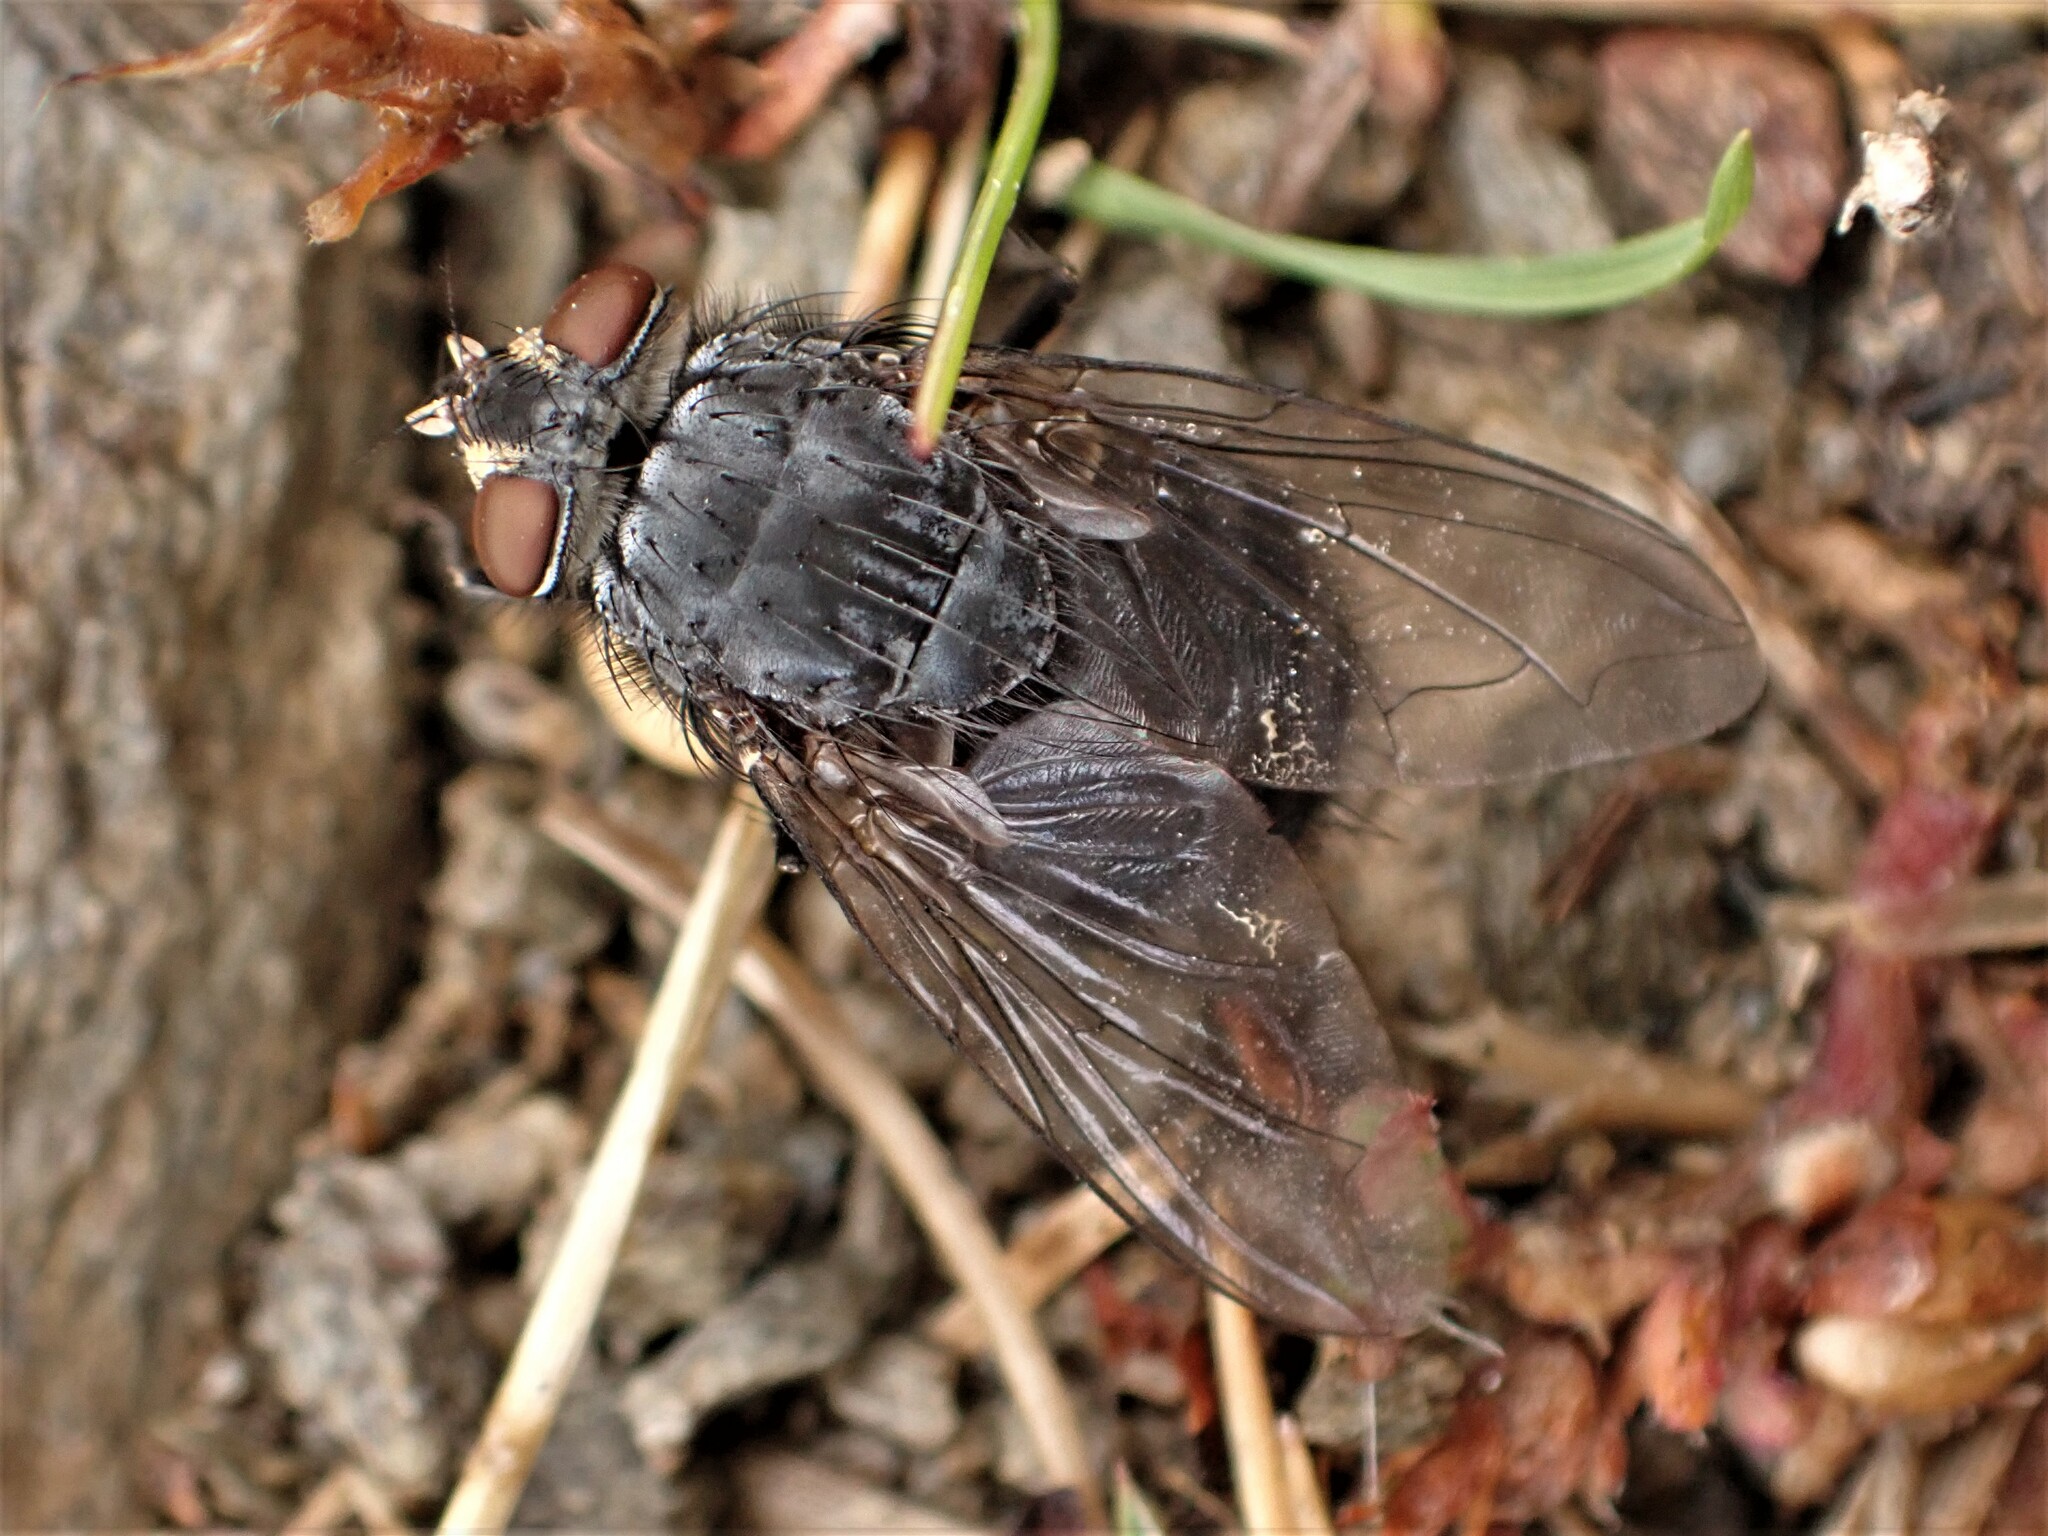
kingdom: Animalia
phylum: Arthropoda
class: Insecta
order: Diptera
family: Calliphoridae
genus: Calliphora
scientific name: Calliphora vicina
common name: Common blow flie
